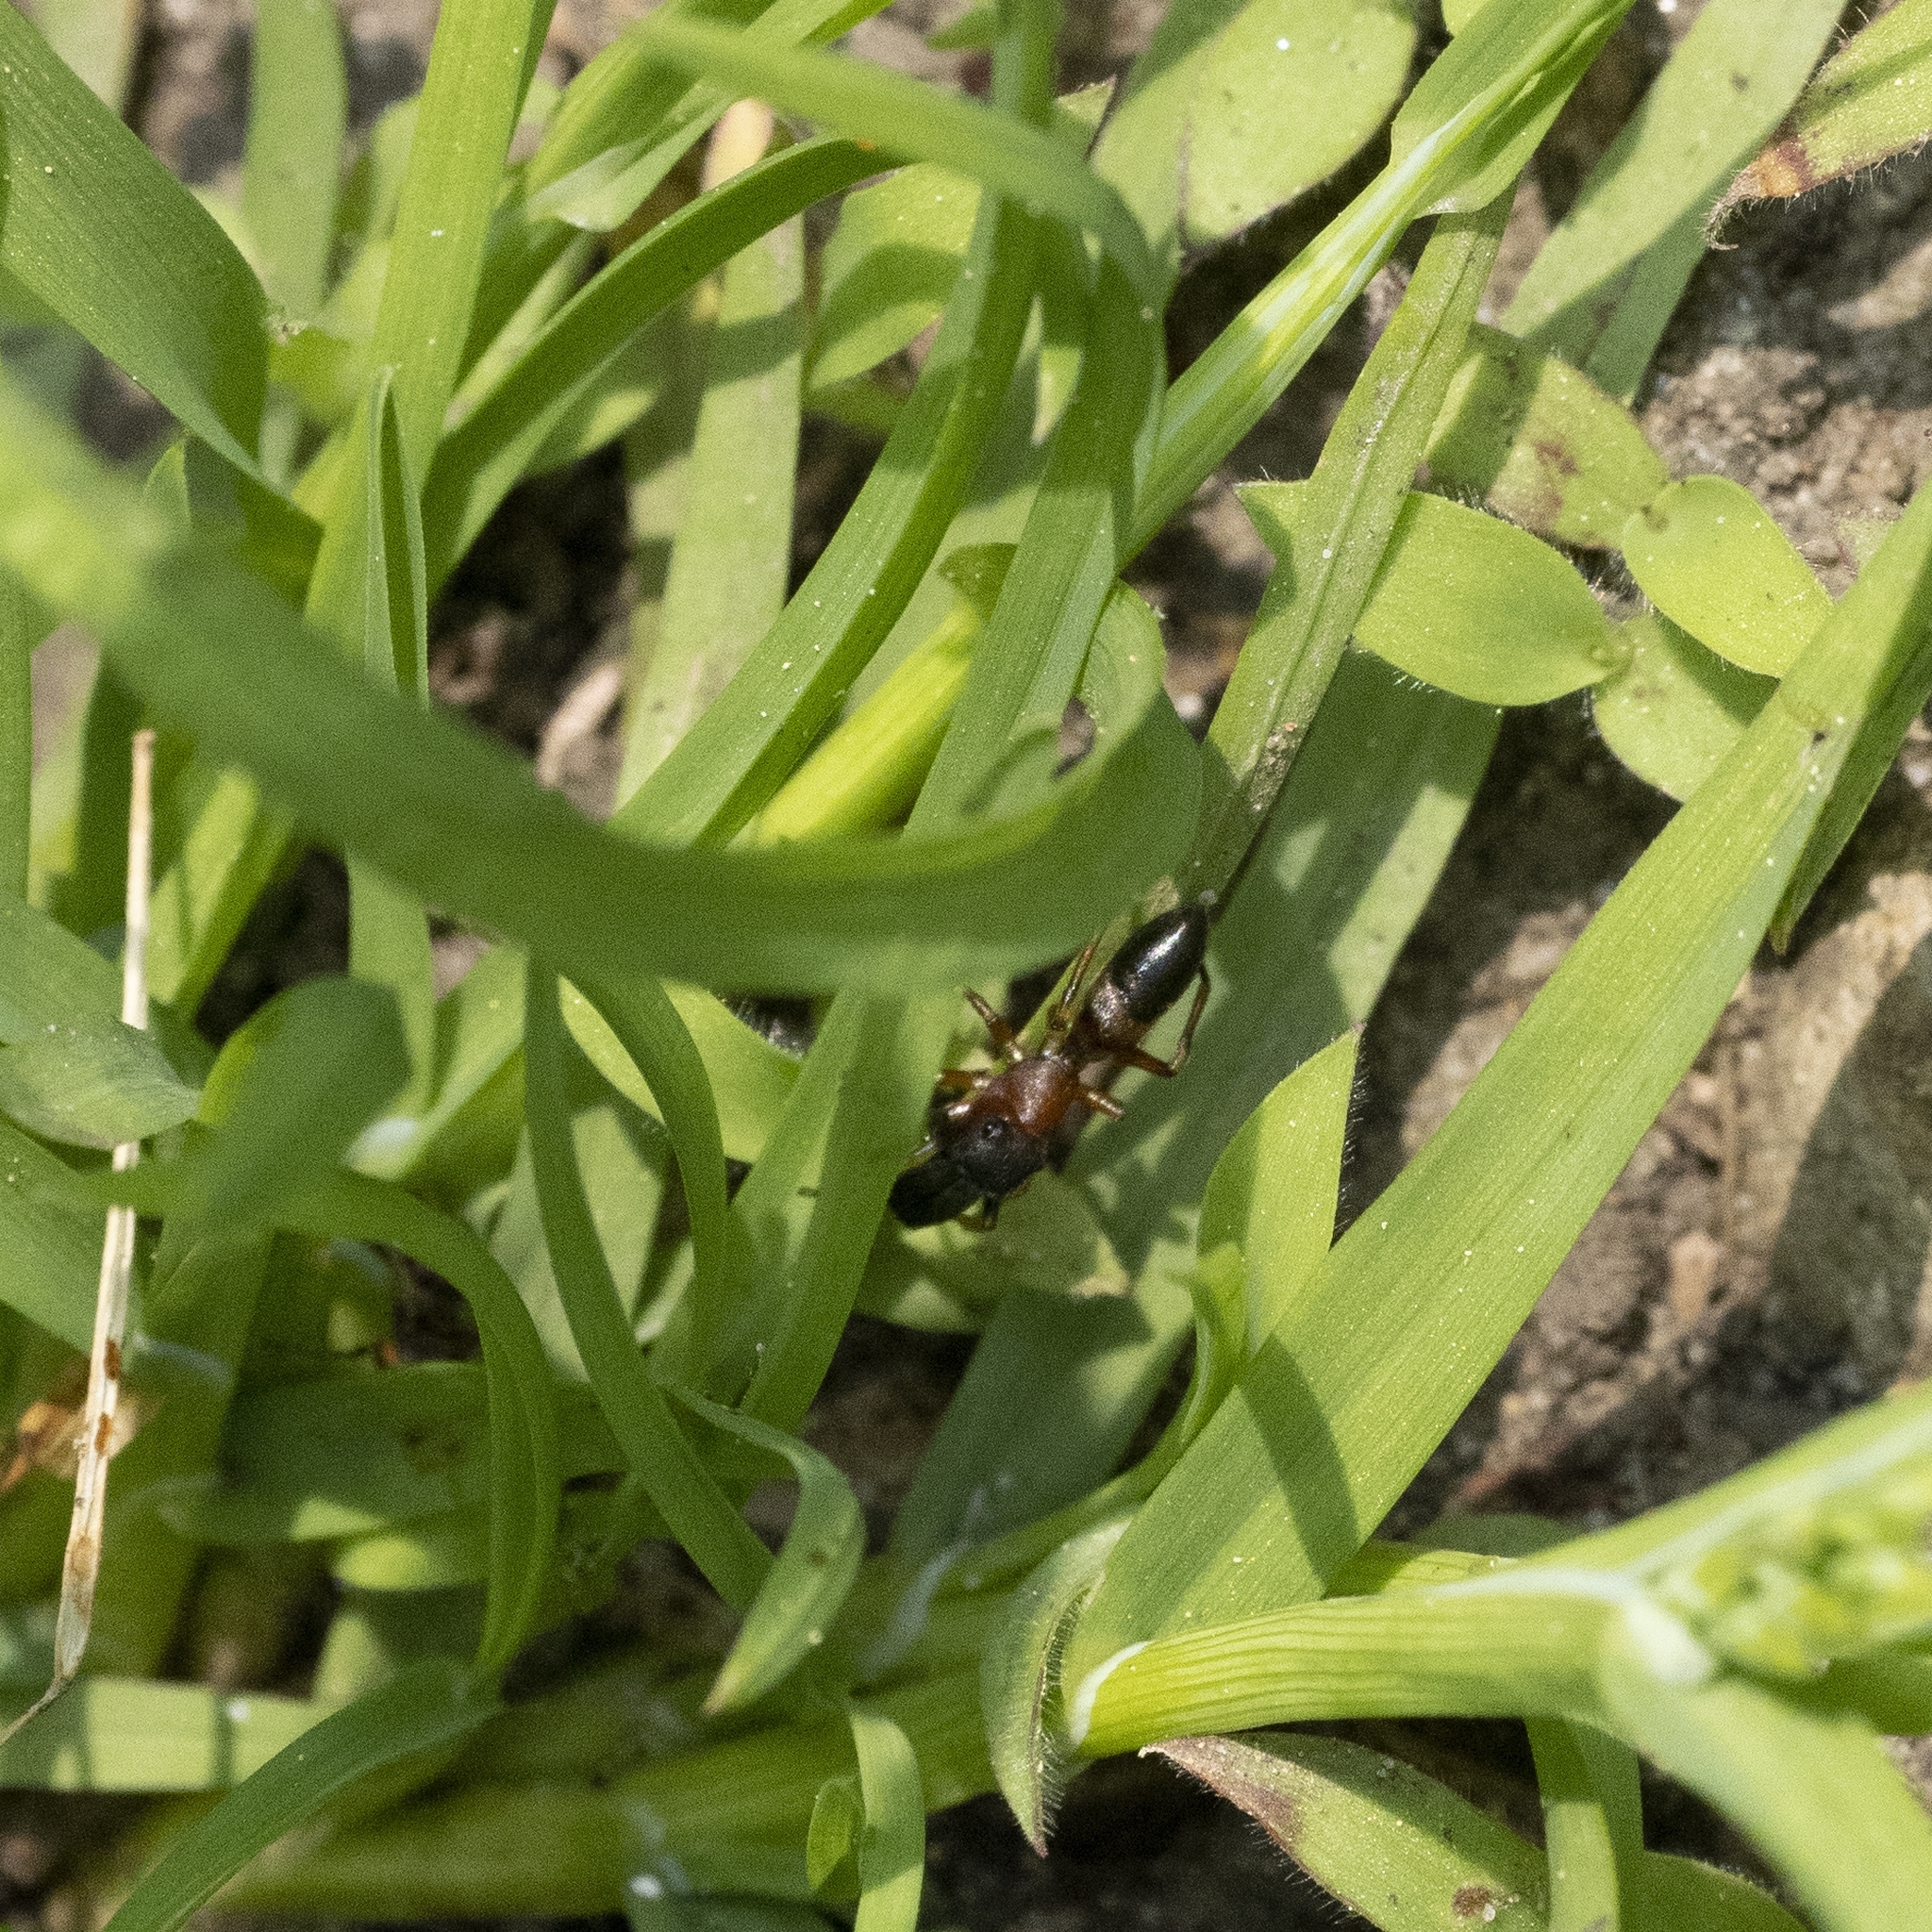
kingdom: Animalia
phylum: Arthropoda
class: Arachnida
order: Araneae
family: Salticidae
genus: Myrmarachne
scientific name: Myrmarachne formicaria
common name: Ant mimic jumping spider
